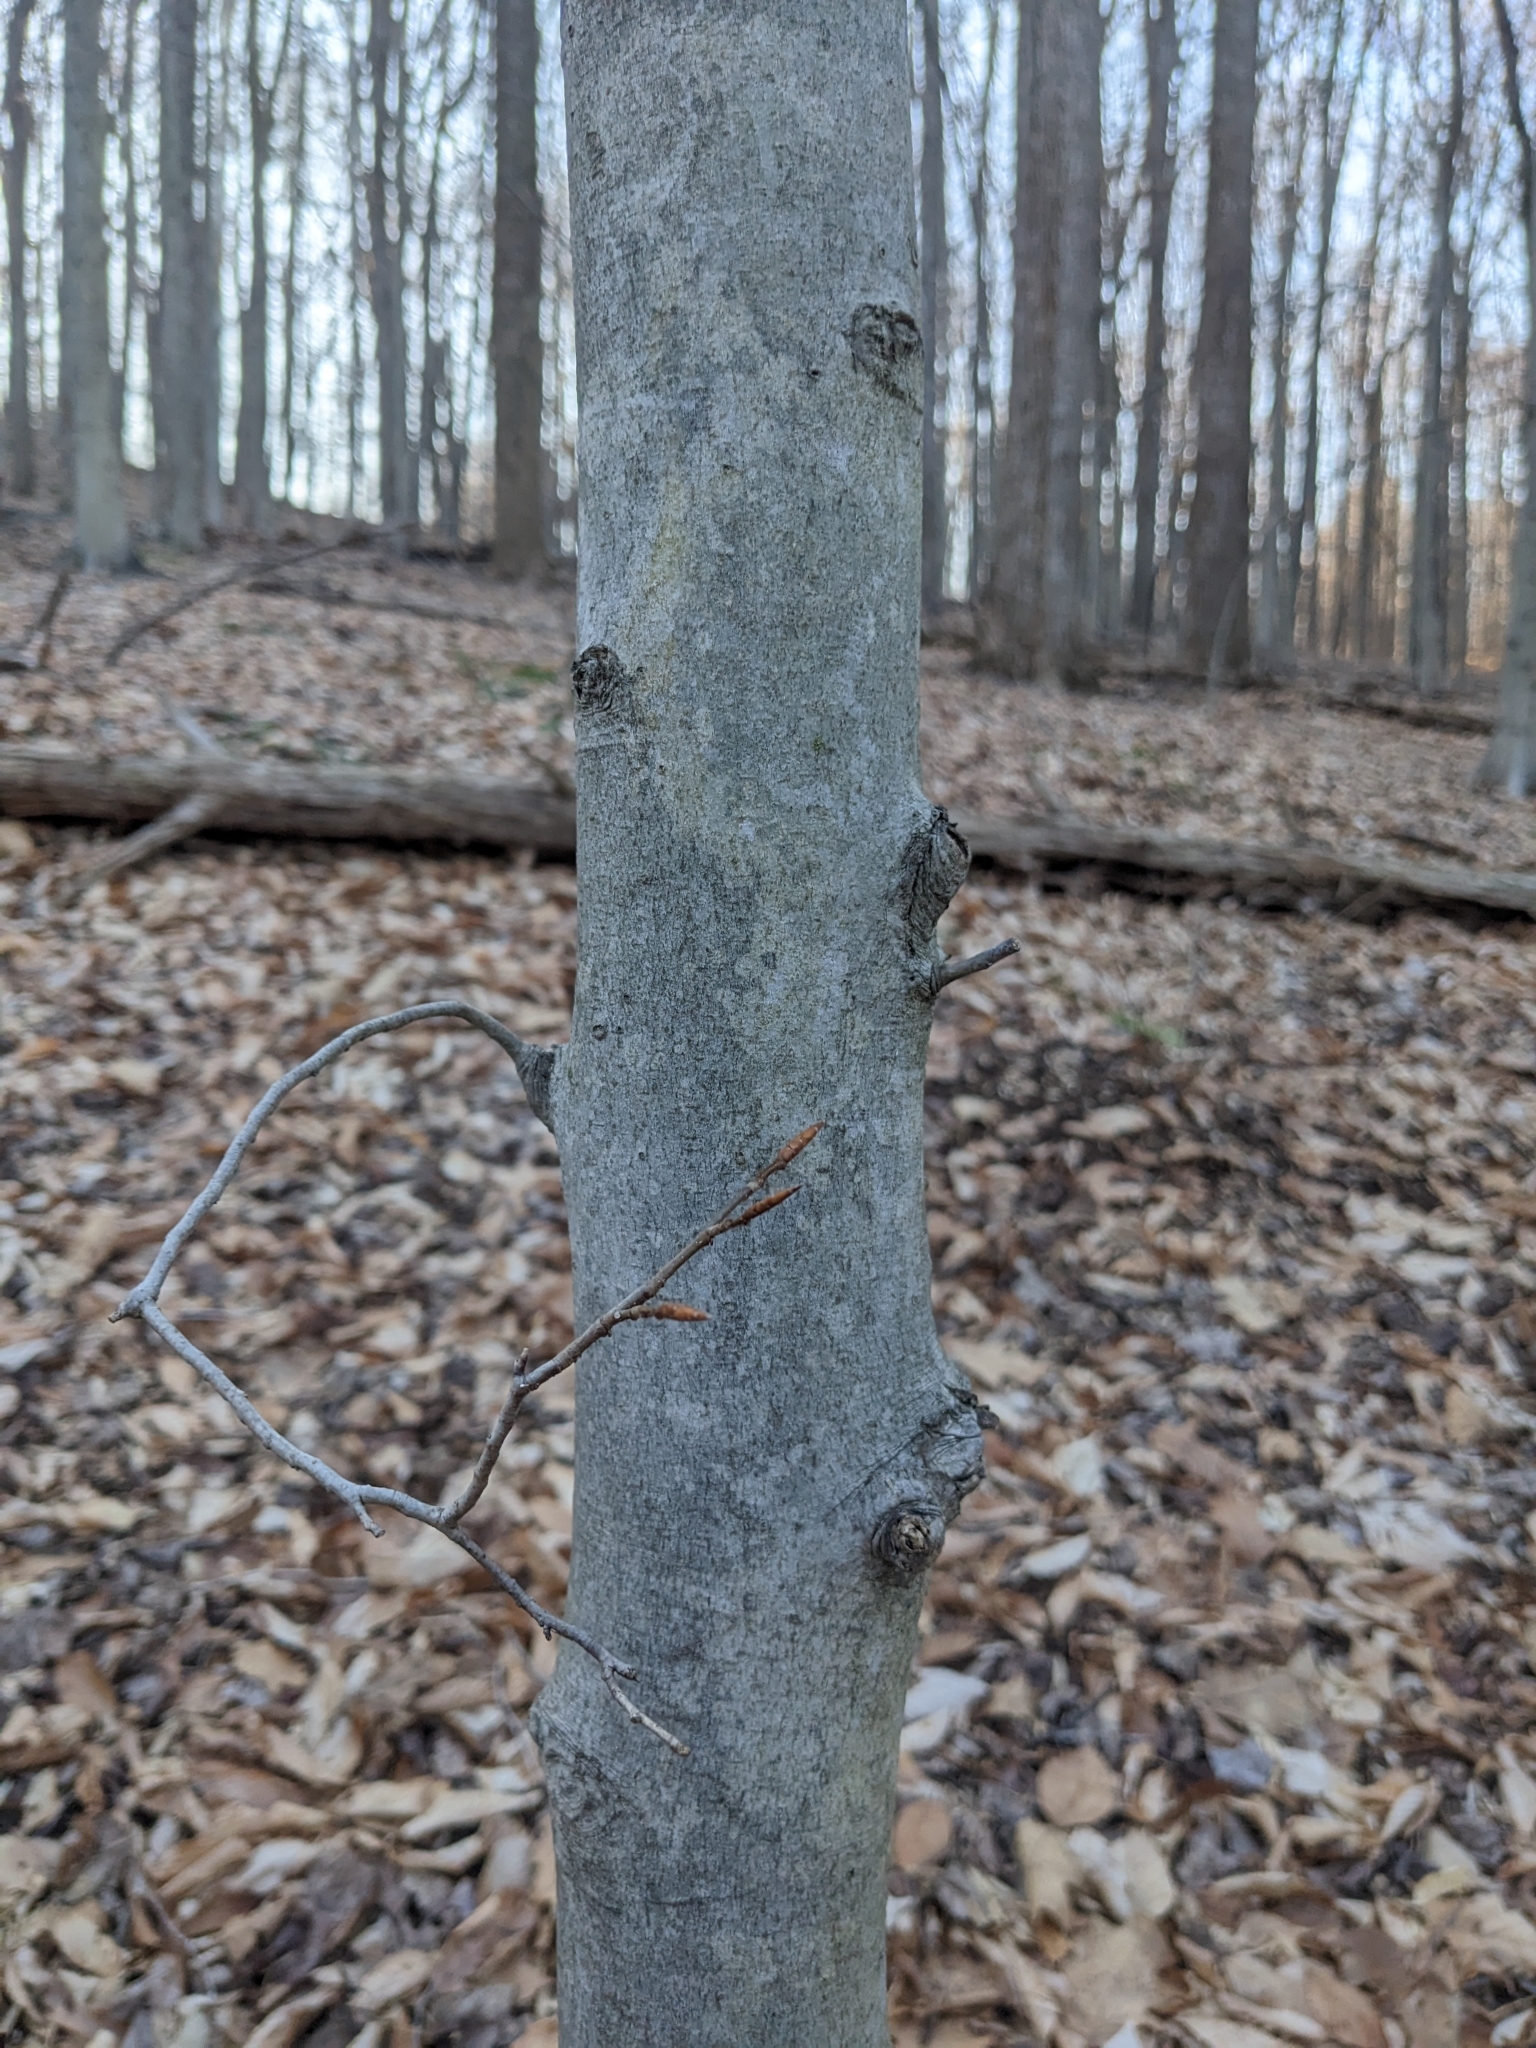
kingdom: Plantae
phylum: Tracheophyta
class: Magnoliopsida
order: Fagales
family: Fagaceae
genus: Fagus
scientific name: Fagus grandifolia
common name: American beech
